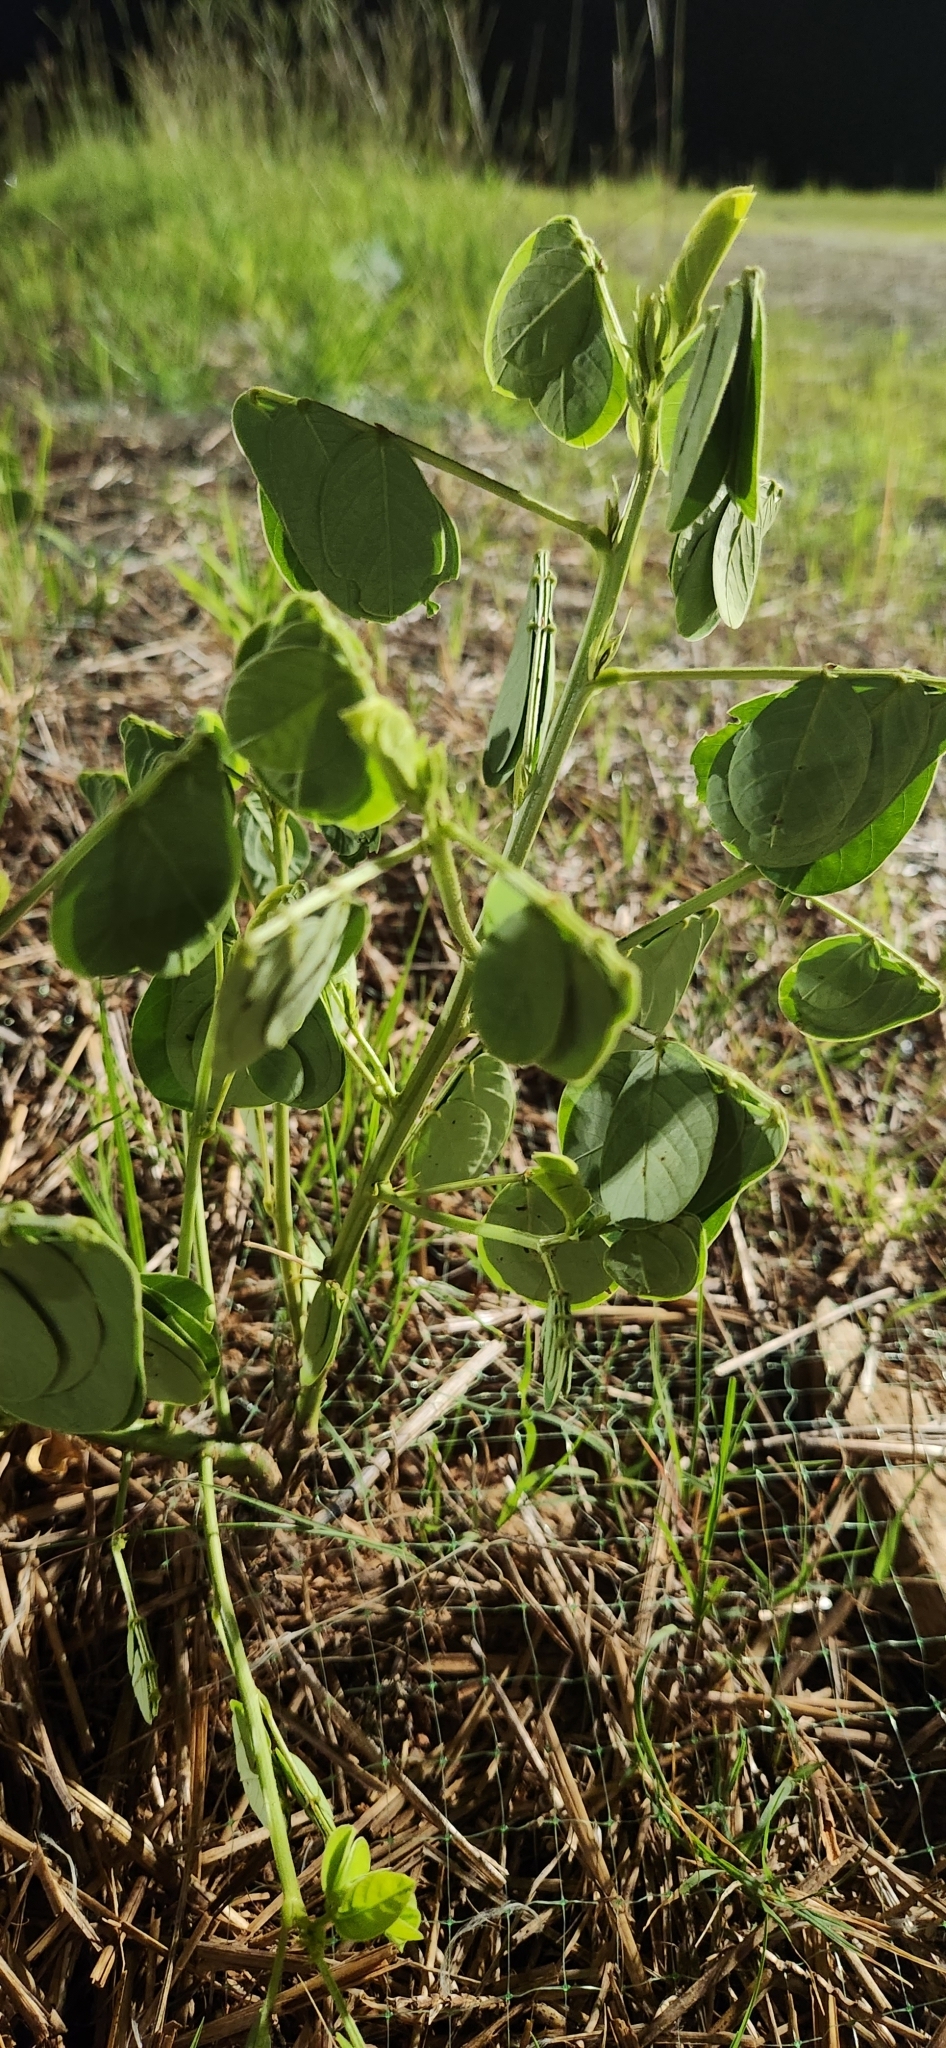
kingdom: Plantae
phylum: Tracheophyta
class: Magnoliopsida
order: Fabales
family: Fabaceae
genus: Senna
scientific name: Senna obtusifolia
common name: Java-bean
